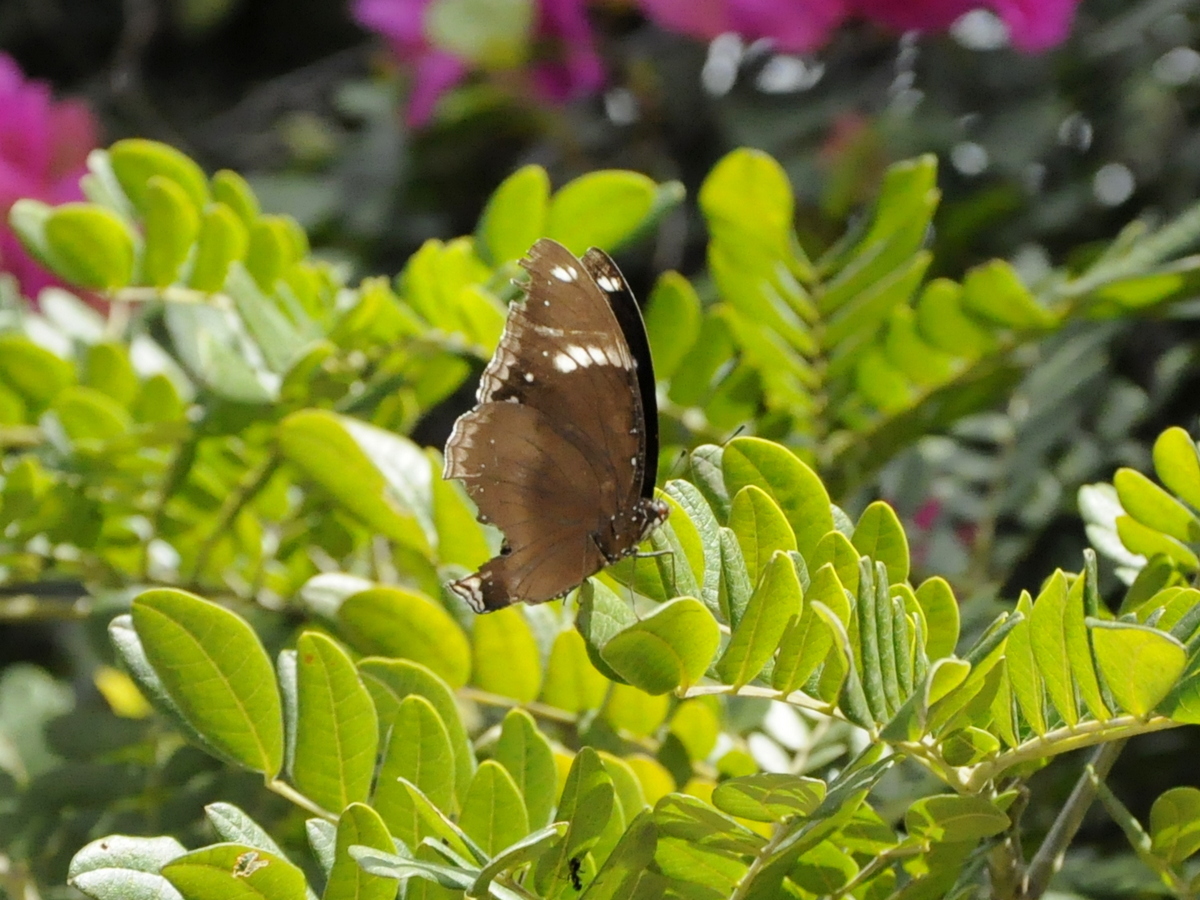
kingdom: Animalia
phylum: Arthropoda
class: Insecta
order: Lepidoptera
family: Nymphalidae
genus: Hypolimnas
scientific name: Hypolimnas bolina
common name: Great eggfly
